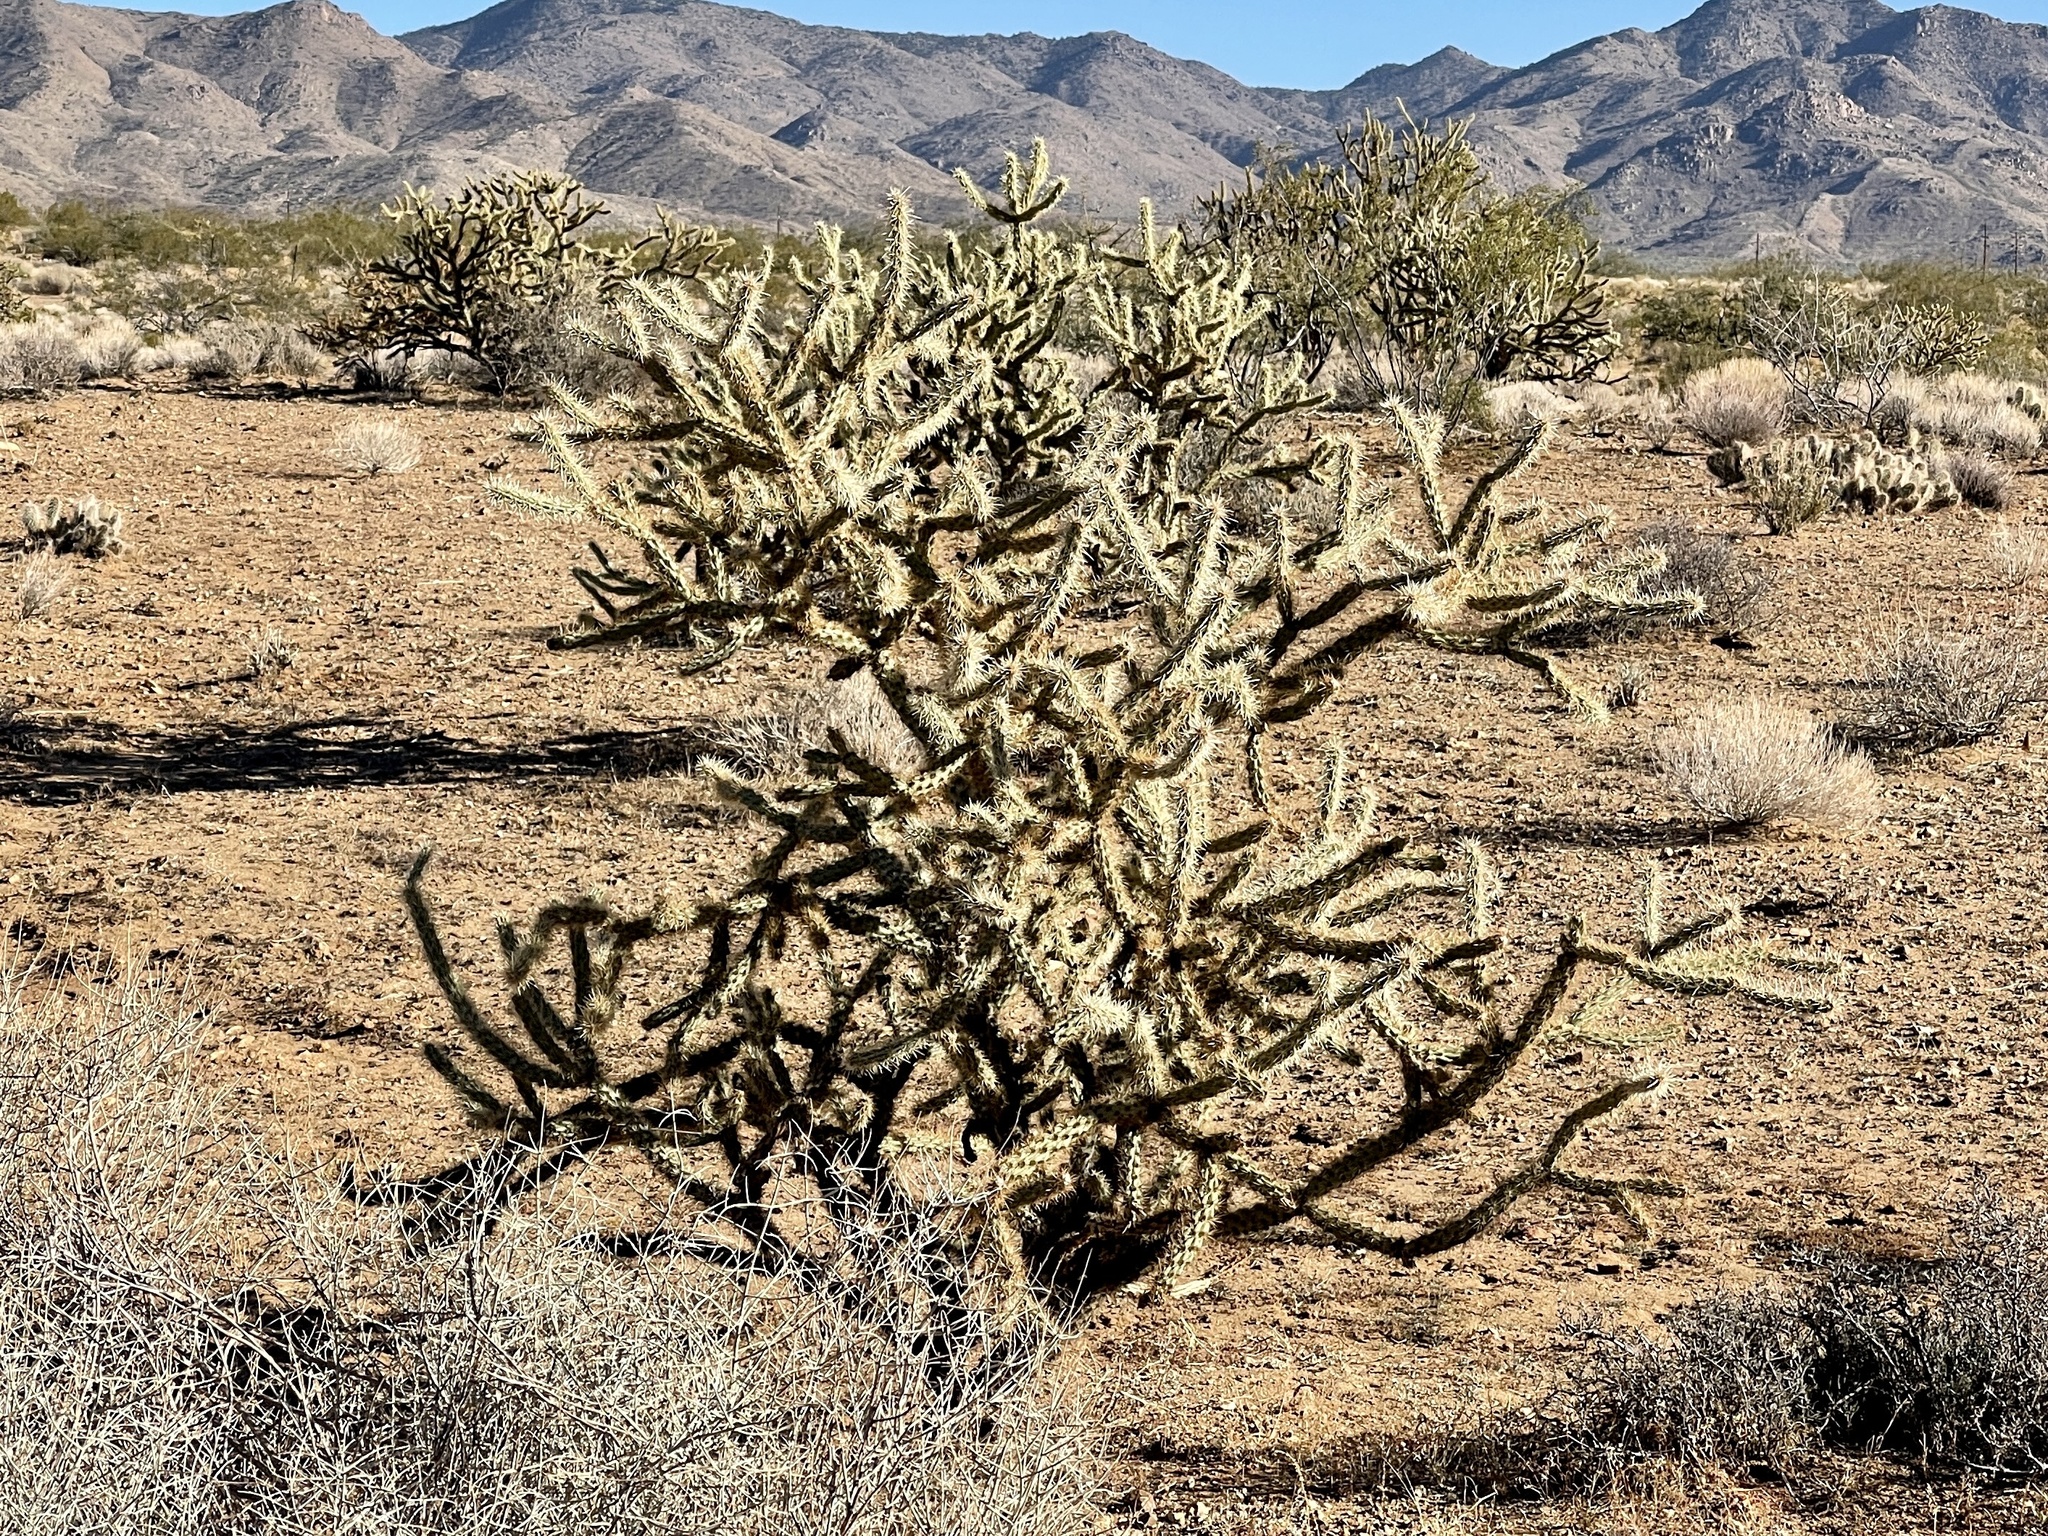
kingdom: Plantae
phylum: Tracheophyta
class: Magnoliopsida
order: Caryophyllales
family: Cactaceae
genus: Cylindropuntia
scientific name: Cylindropuntia acanthocarpa
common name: Buckhorn cholla
